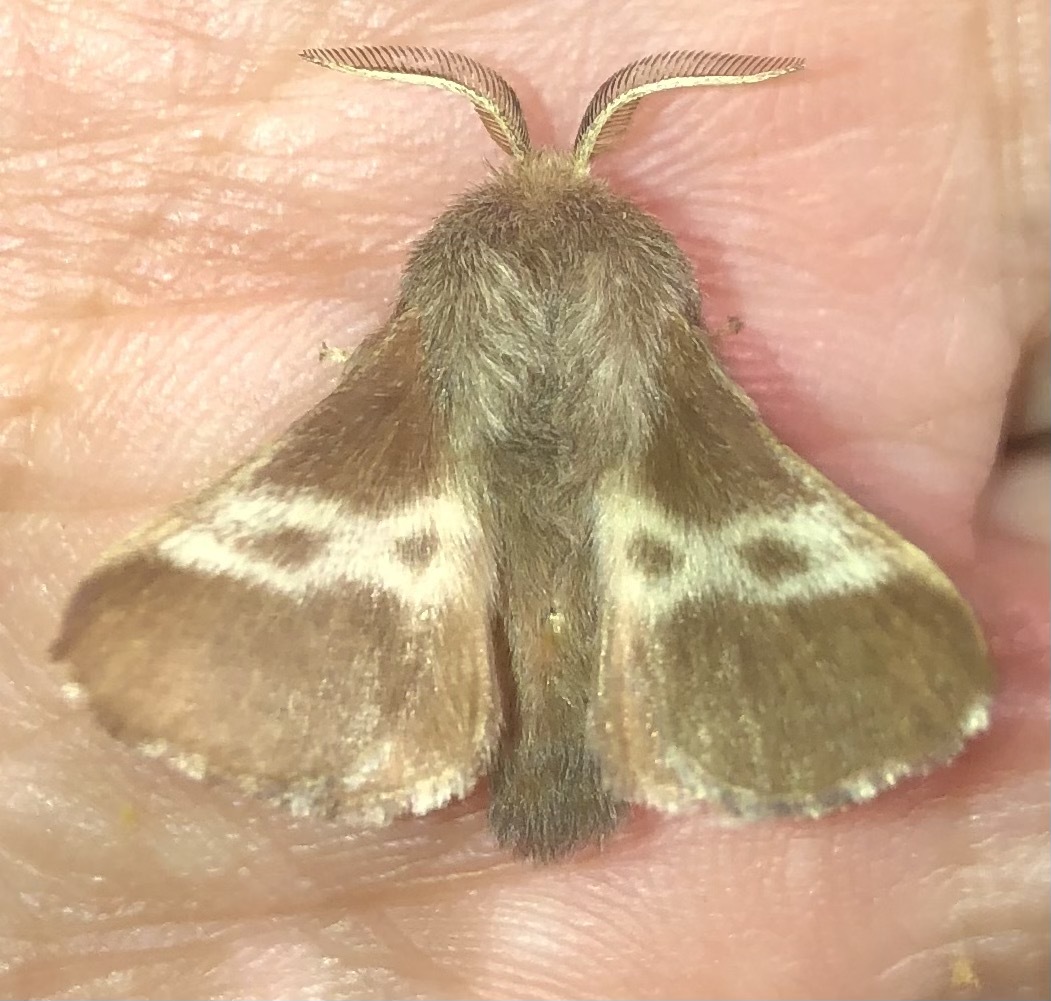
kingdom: Animalia
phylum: Arthropoda
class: Insecta
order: Lepidoptera
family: Lasiocampidae
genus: Malacosoma
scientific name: Malacosoma americana
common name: Eastern tent caterpillar moth
